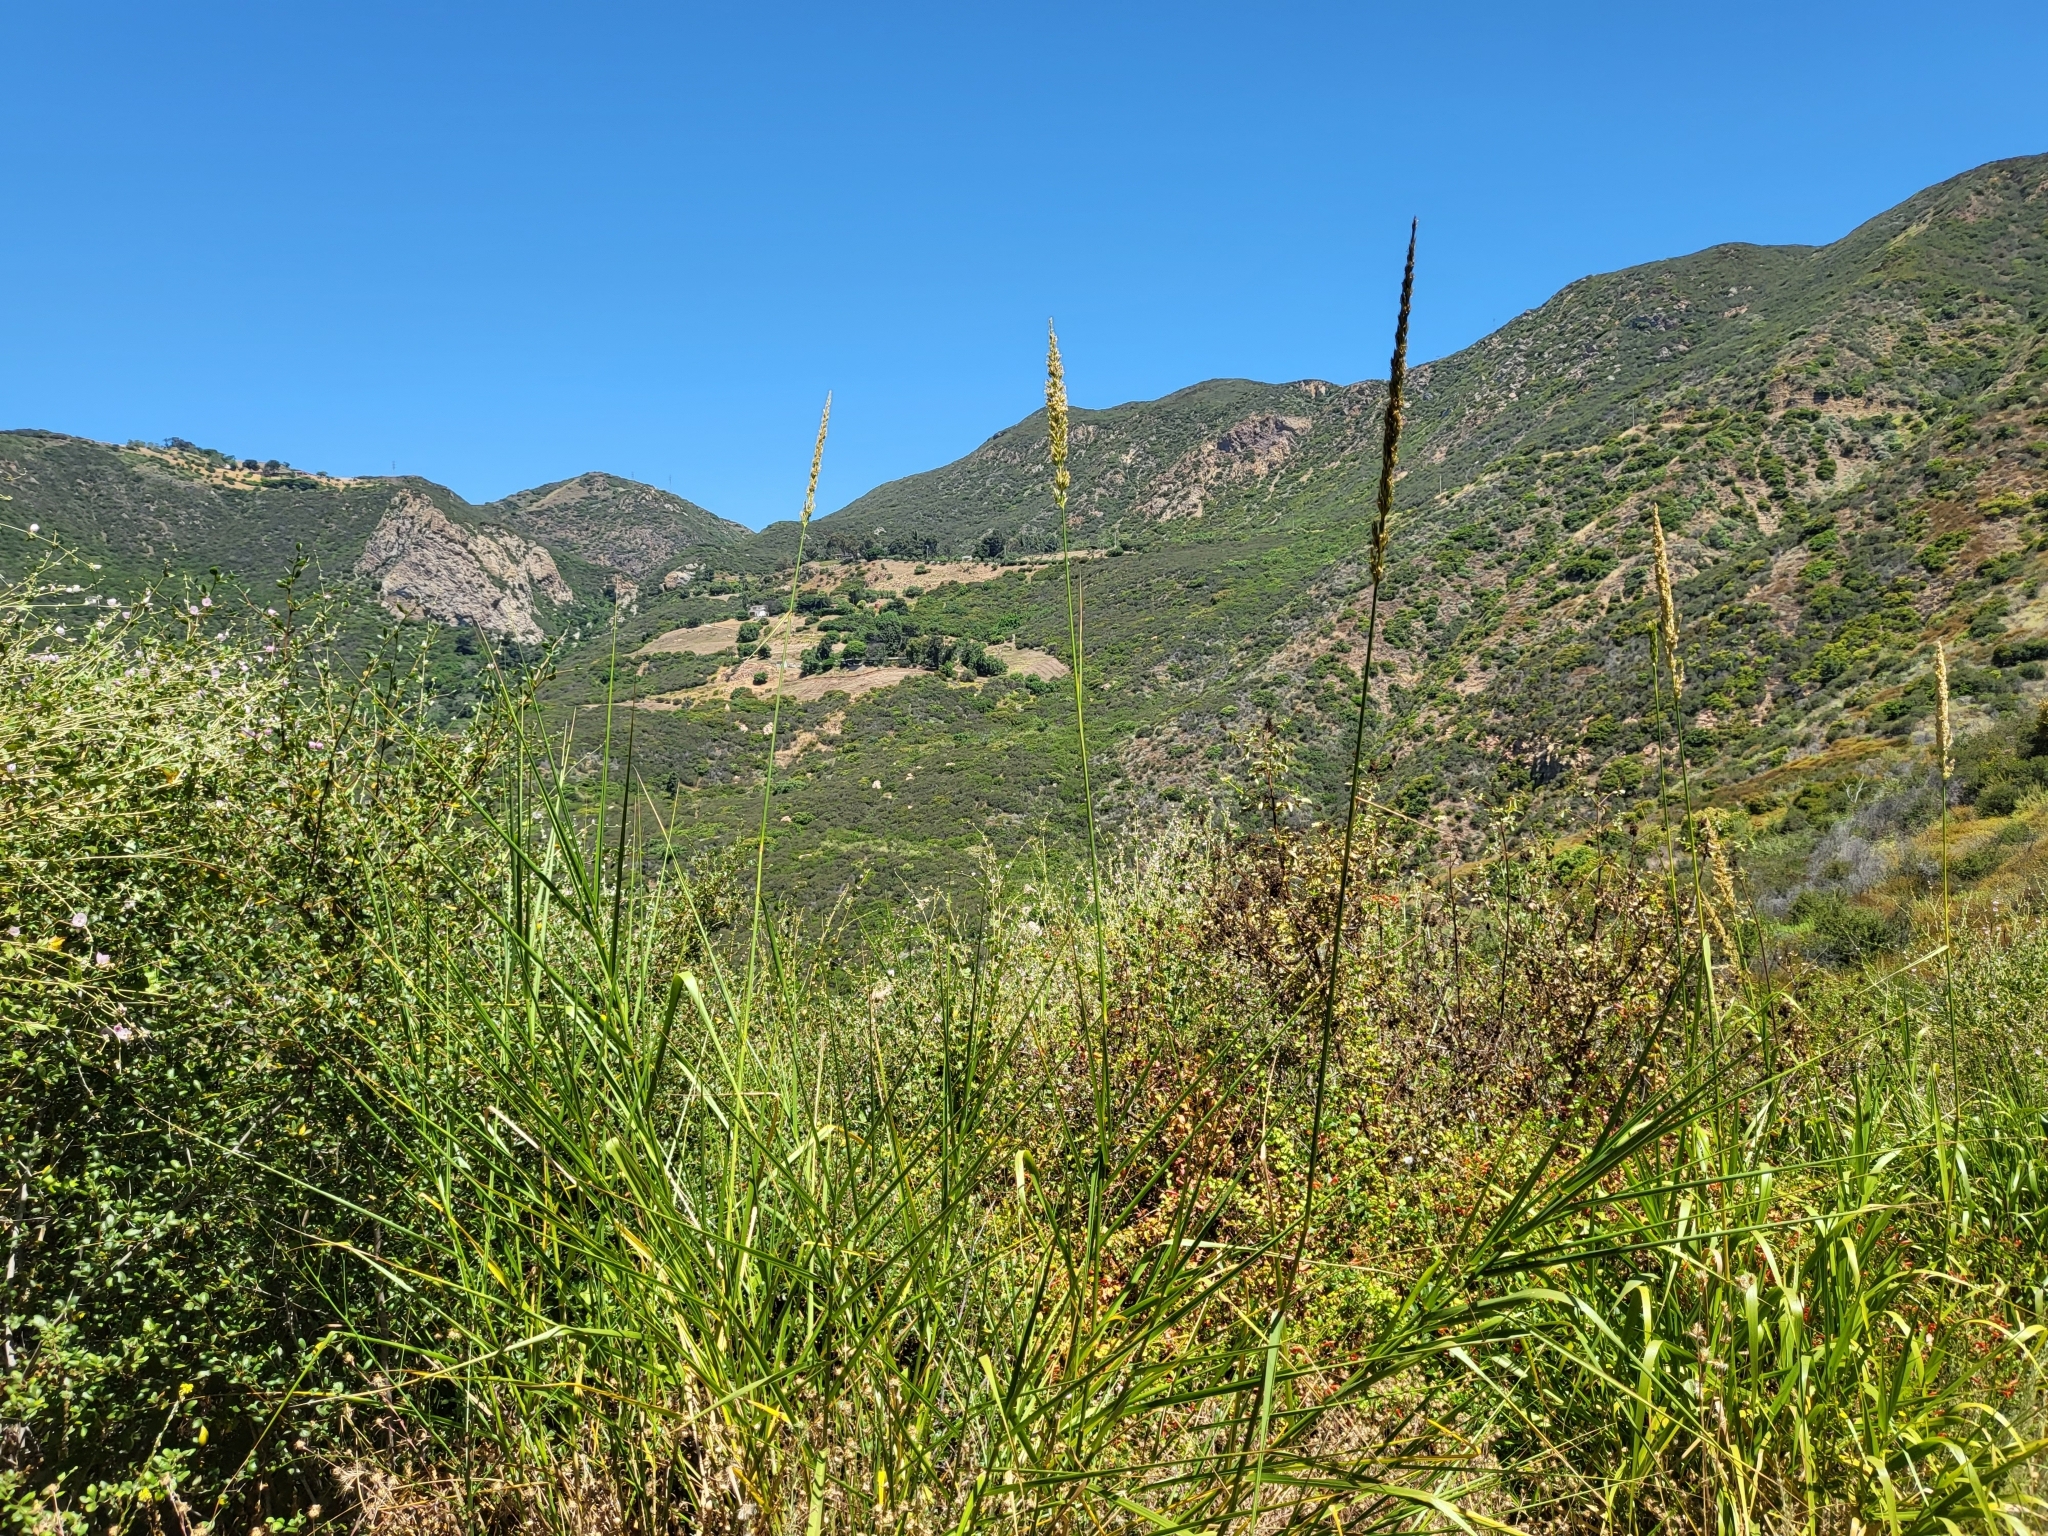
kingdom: Plantae
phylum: Tracheophyta
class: Liliopsida
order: Poales
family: Poaceae
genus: Leymus
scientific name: Leymus condensatus
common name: Giant wild rye
